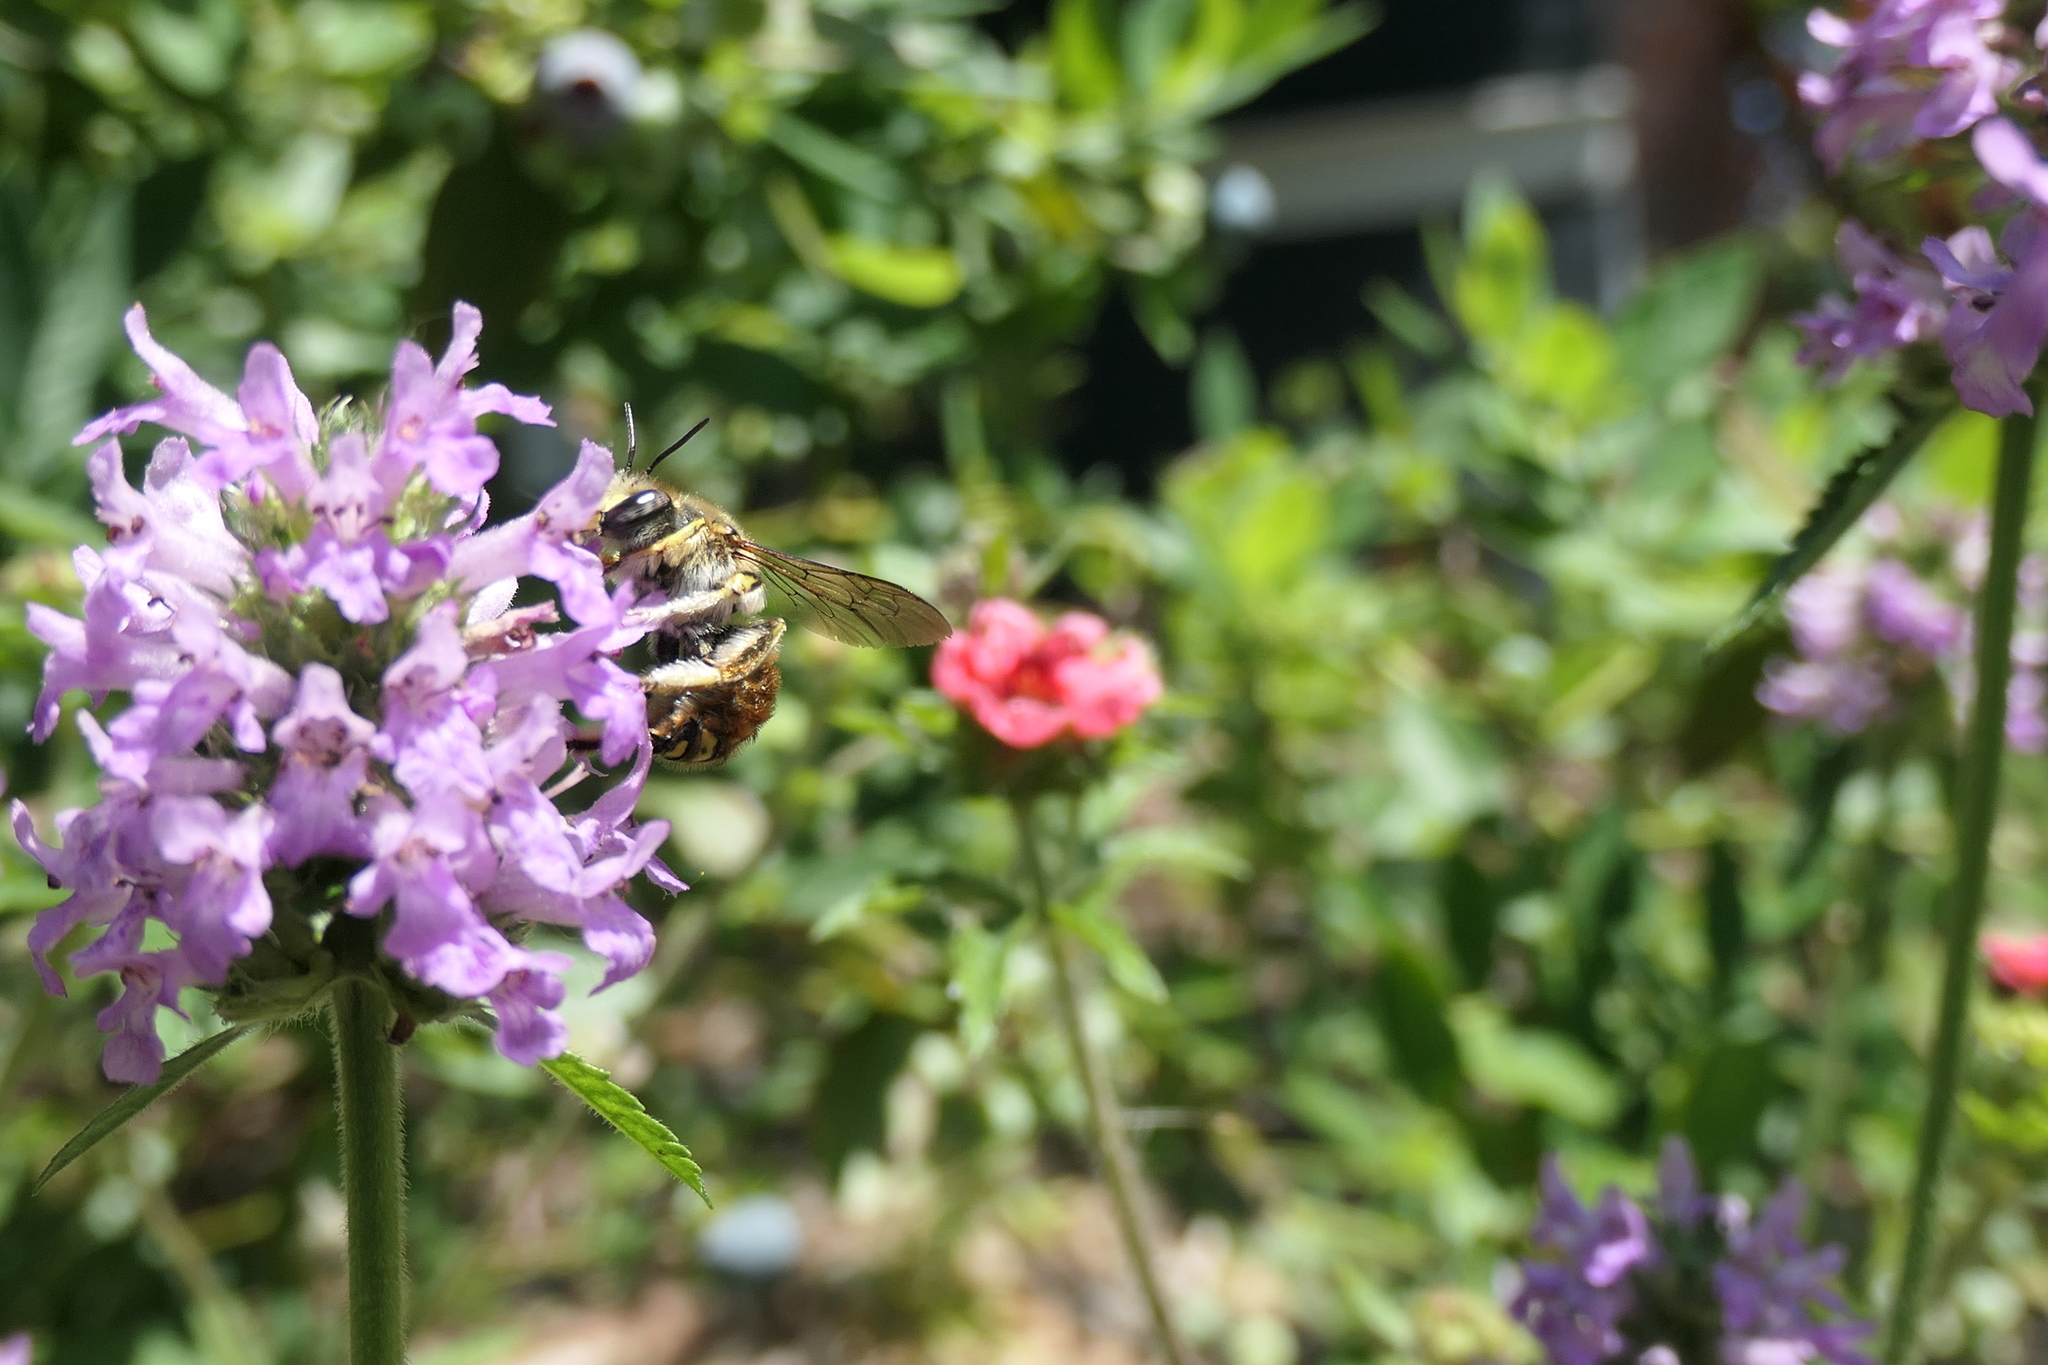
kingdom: Animalia
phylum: Arthropoda
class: Insecta
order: Hymenoptera
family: Megachilidae
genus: Anthidium
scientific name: Anthidium manicatum
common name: Wool carder bee
